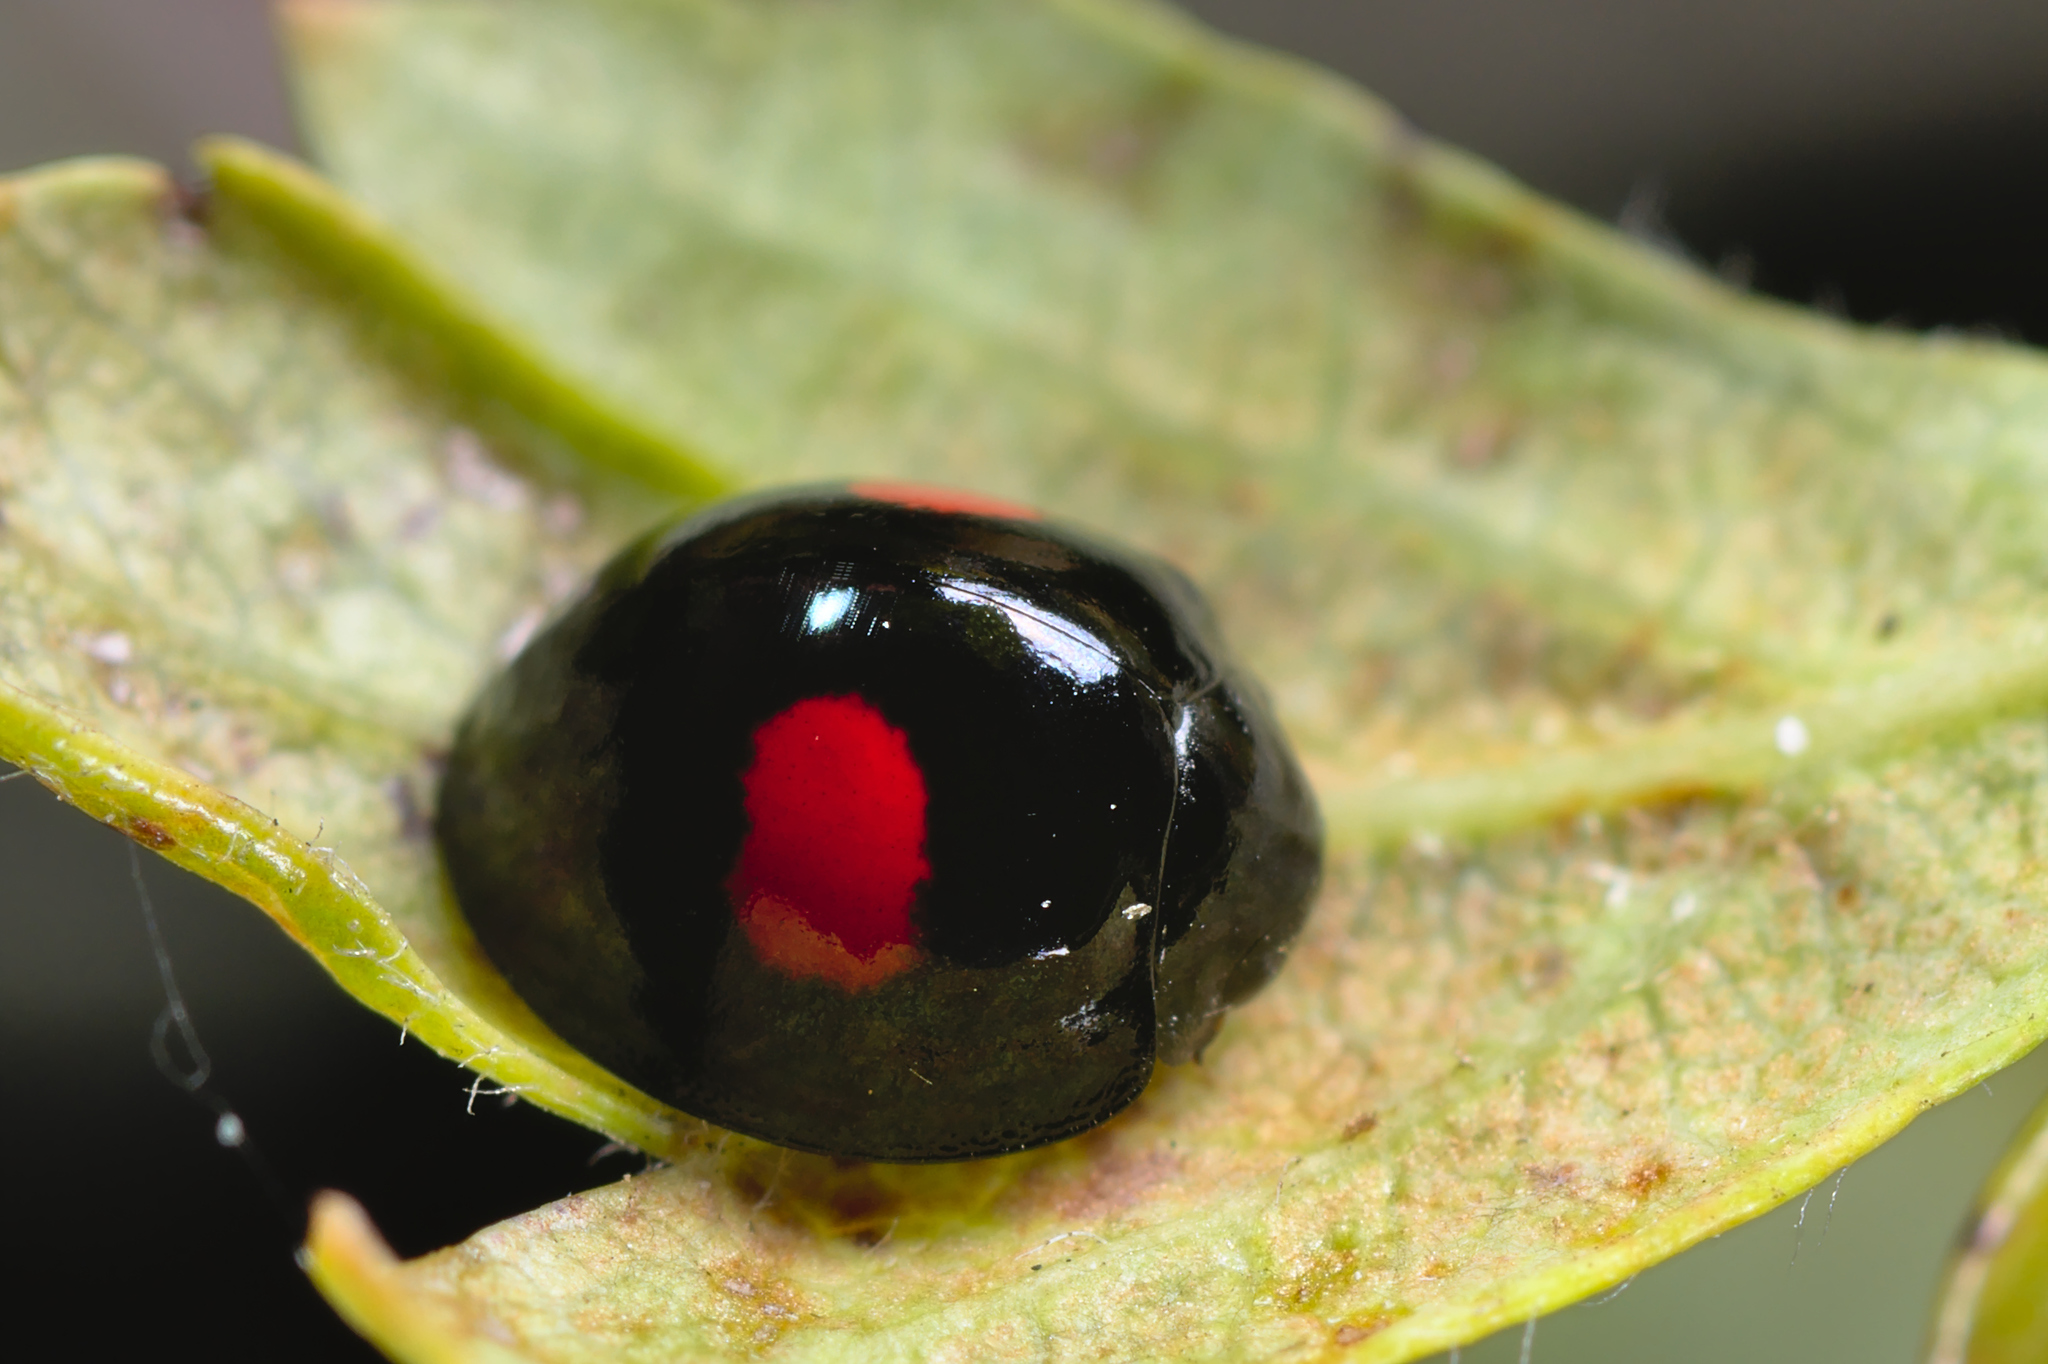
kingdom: Animalia
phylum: Arthropoda
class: Insecta
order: Coleoptera
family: Coccinellidae
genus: Chilocorus
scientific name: Chilocorus renipustulatus
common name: Kidney-spot ladybird
